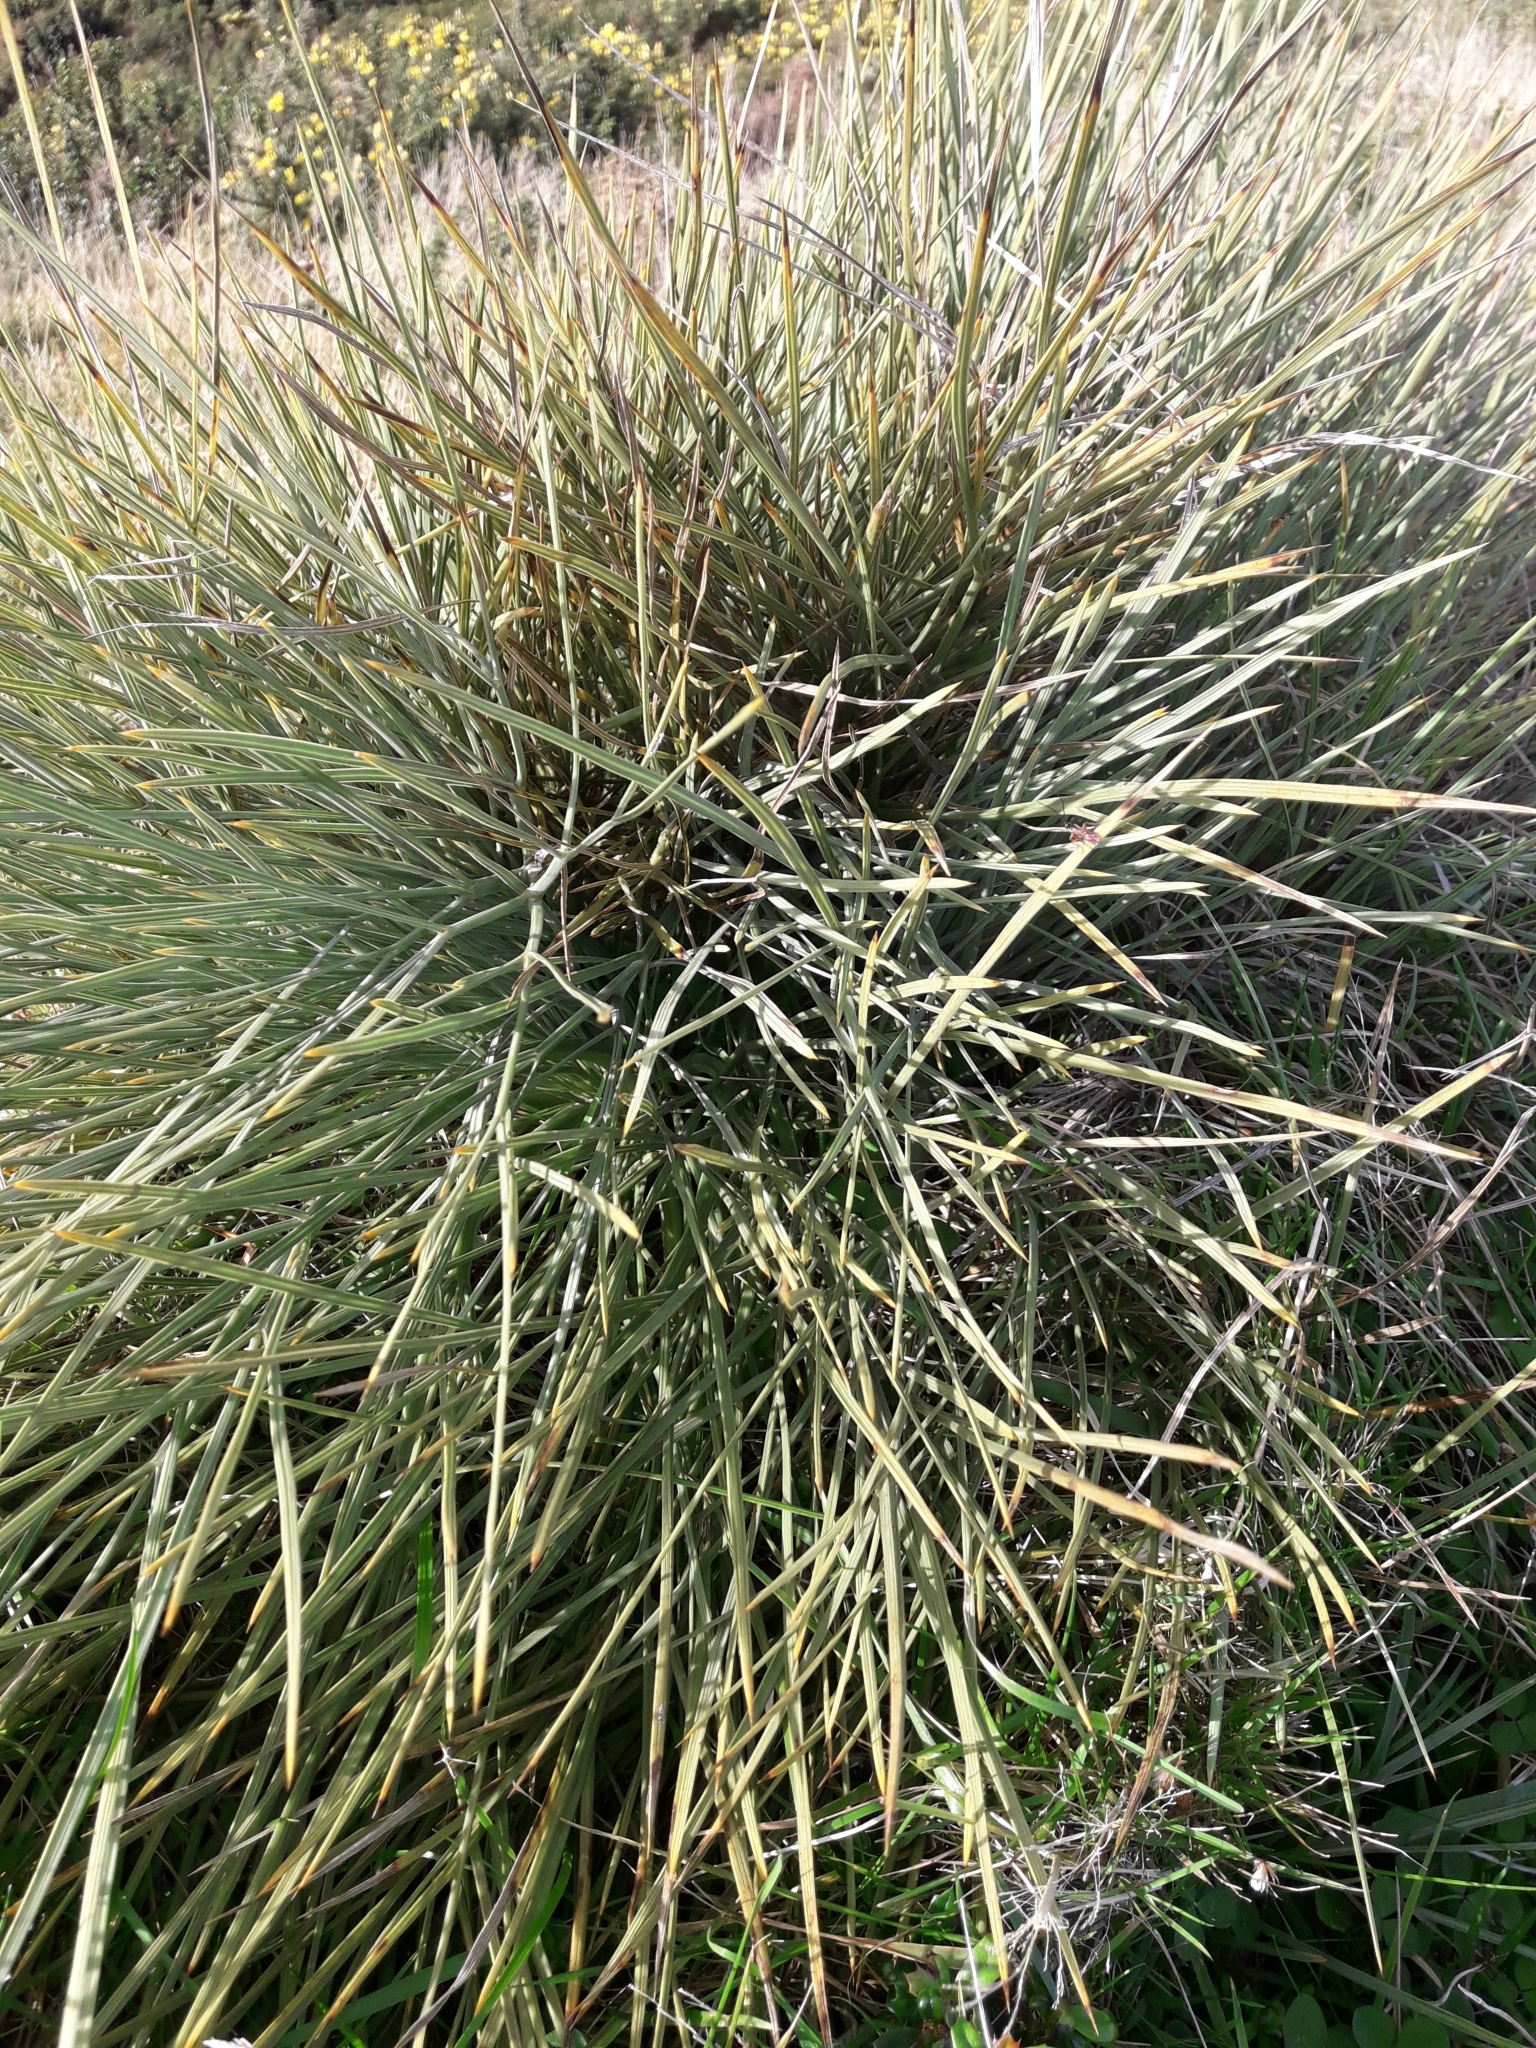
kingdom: Plantae
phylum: Tracheophyta
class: Magnoliopsida
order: Apiales
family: Apiaceae
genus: Aciphylla
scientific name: Aciphylla squarrosa
